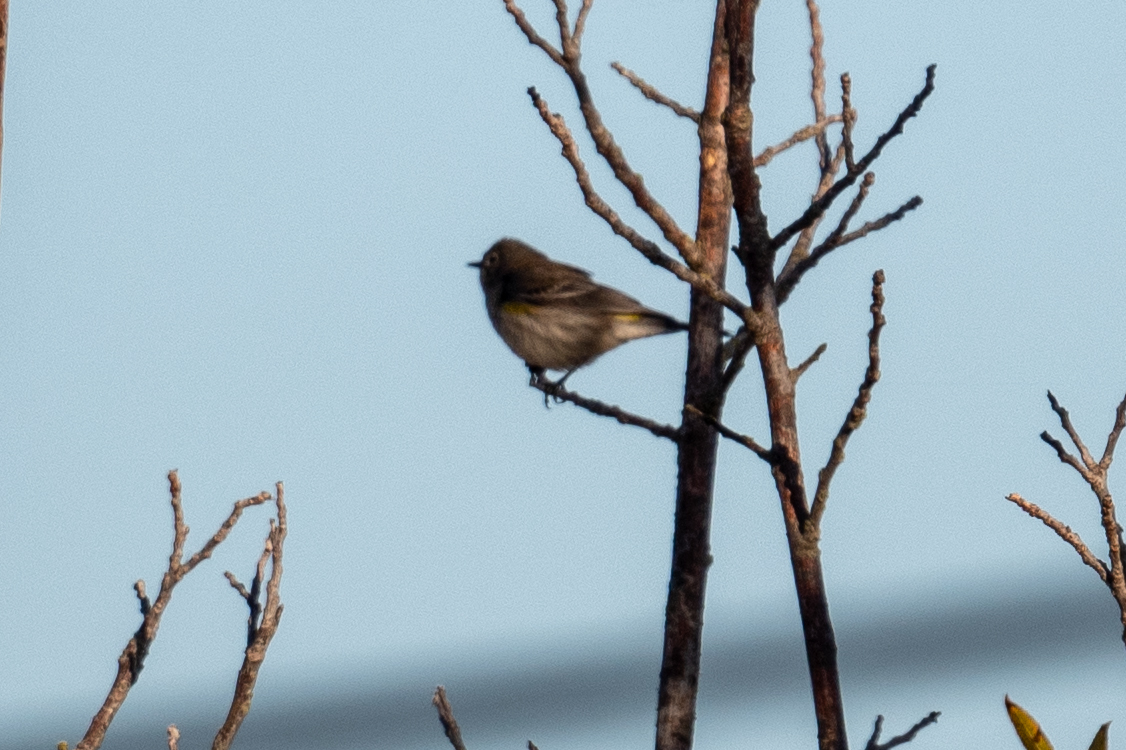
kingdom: Animalia
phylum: Chordata
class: Aves
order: Passeriformes
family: Parulidae
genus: Setophaga
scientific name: Setophaga coronata
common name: Myrtle warbler
